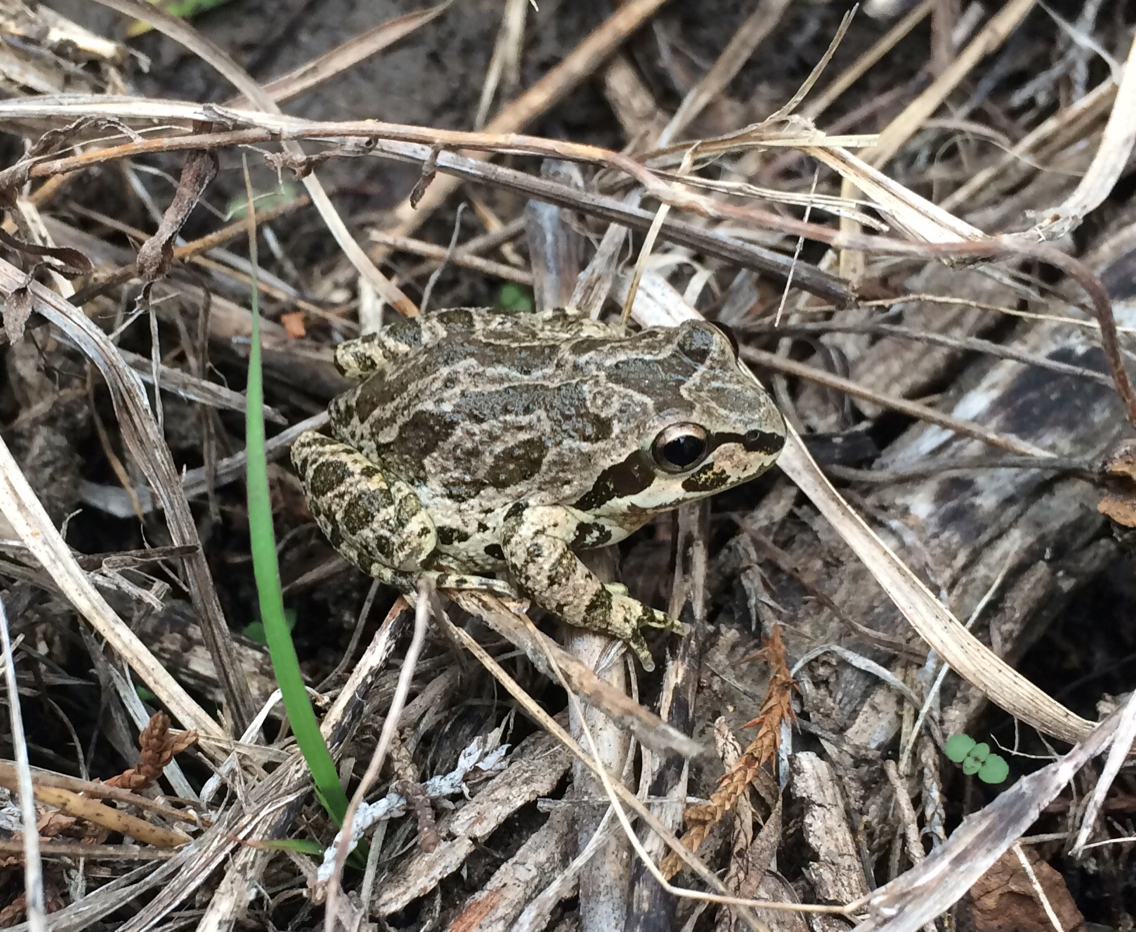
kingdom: Animalia
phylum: Chordata
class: Amphibia
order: Anura
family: Hylidae
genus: Pseudacris
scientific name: Pseudacris streckeri
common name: Strecker's chorus frog
